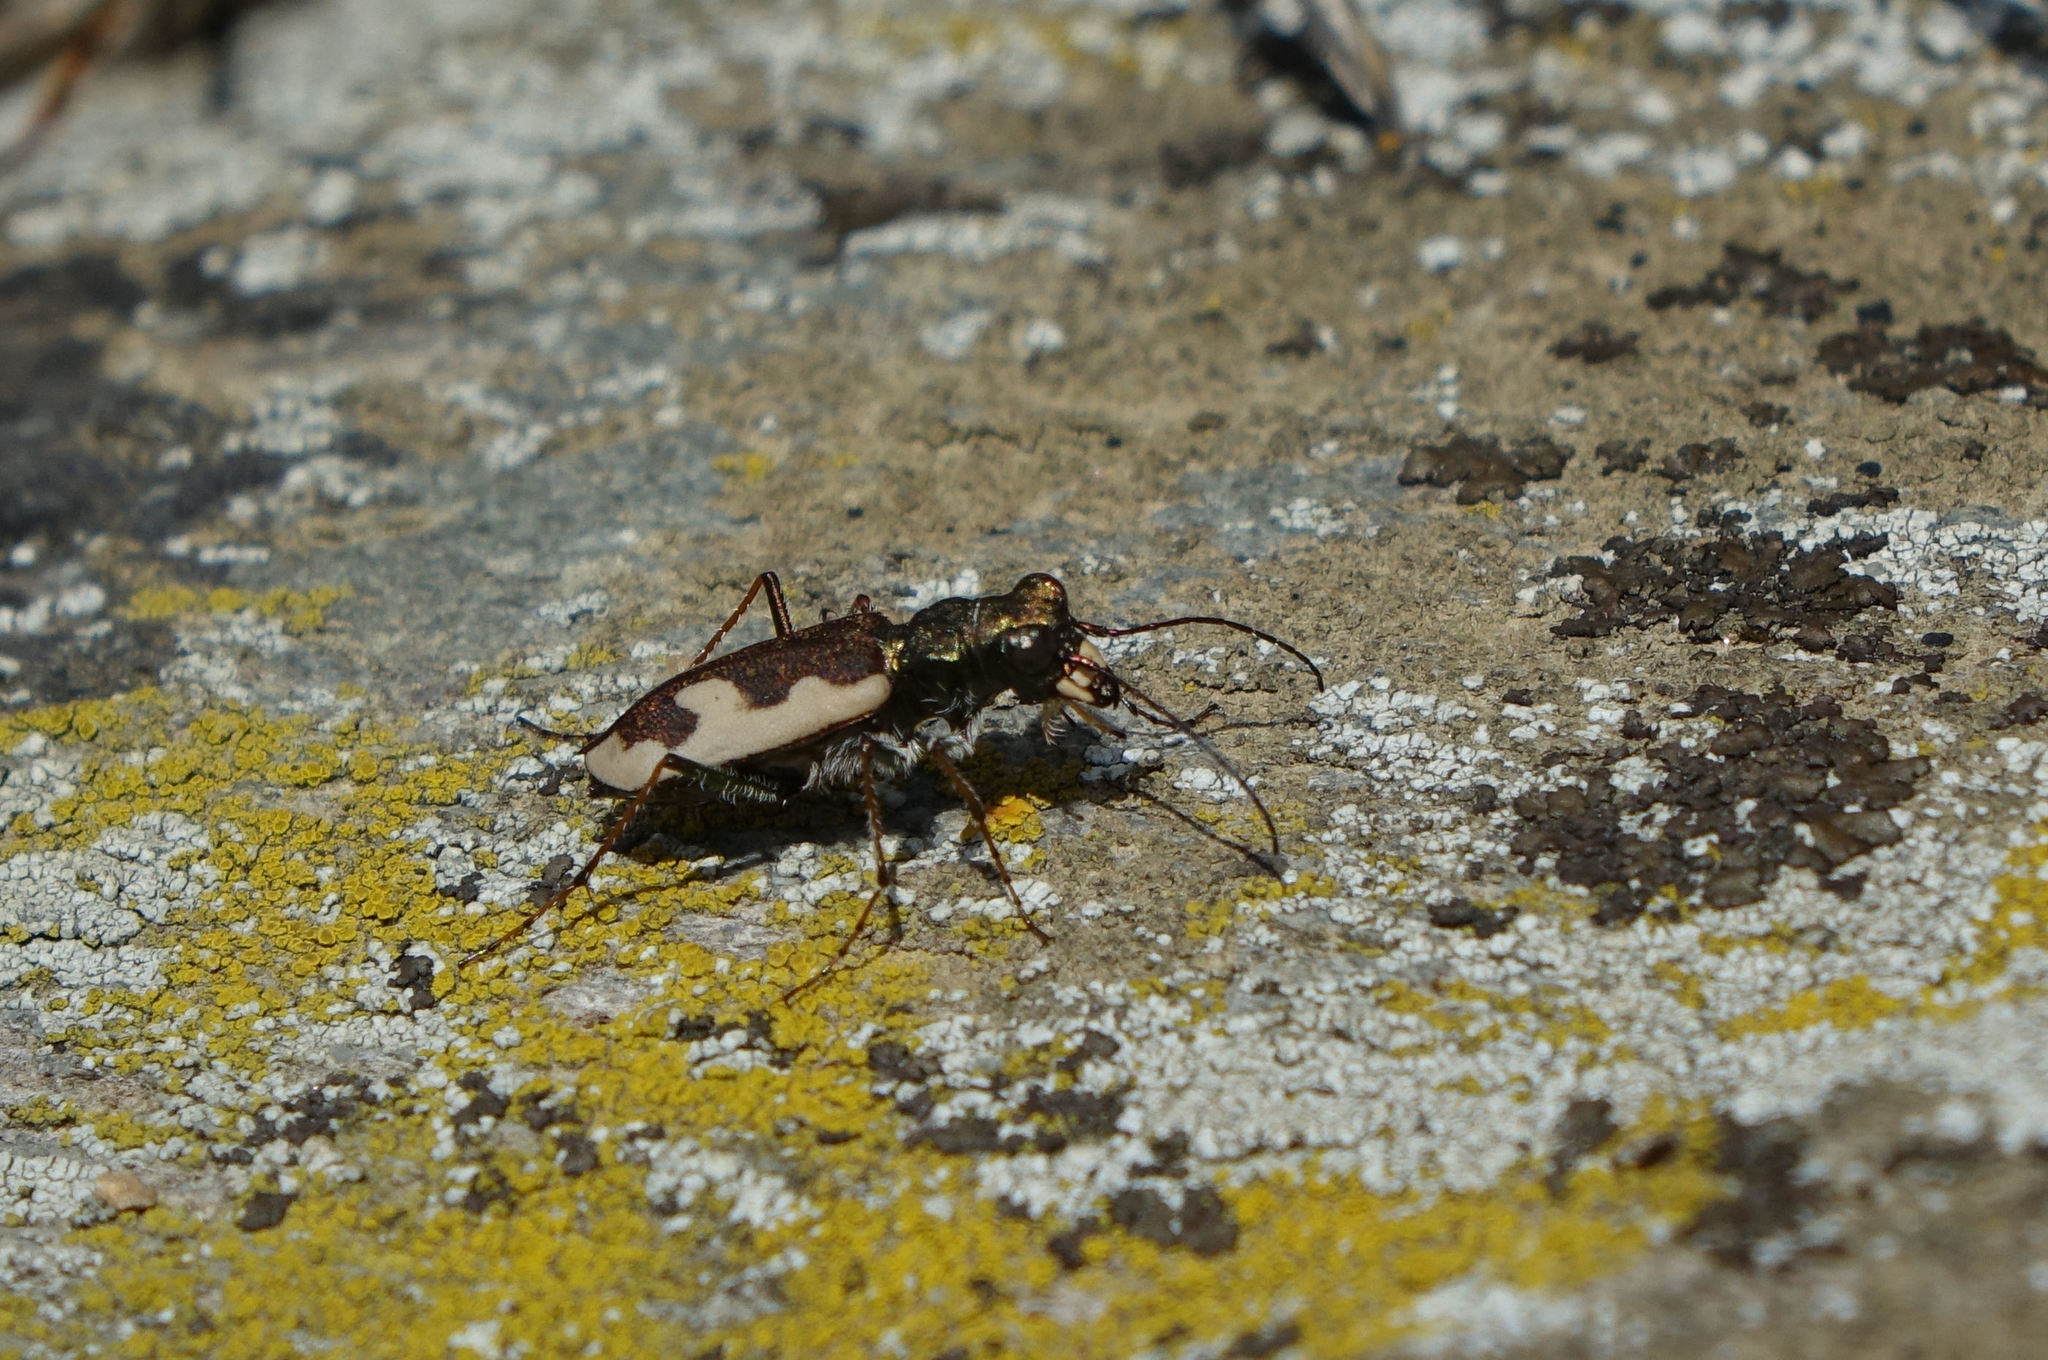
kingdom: Animalia
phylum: Arthropoda
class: Insecta
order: Coleoptera
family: Carabidae
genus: Neocicindela
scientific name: Neocicindela latecincta
